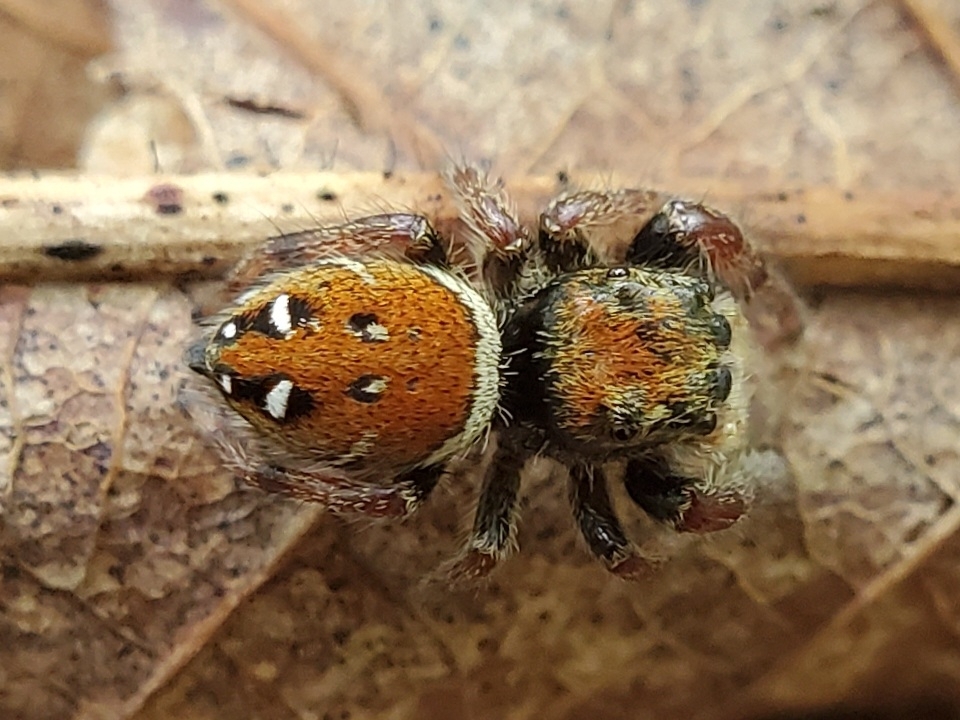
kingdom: Animalia
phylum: Arthropoda
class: Arachnida
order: Araneae
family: Salticidae
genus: Phidippus
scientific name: Phidippus whitmani
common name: Whitman's jumping spider
